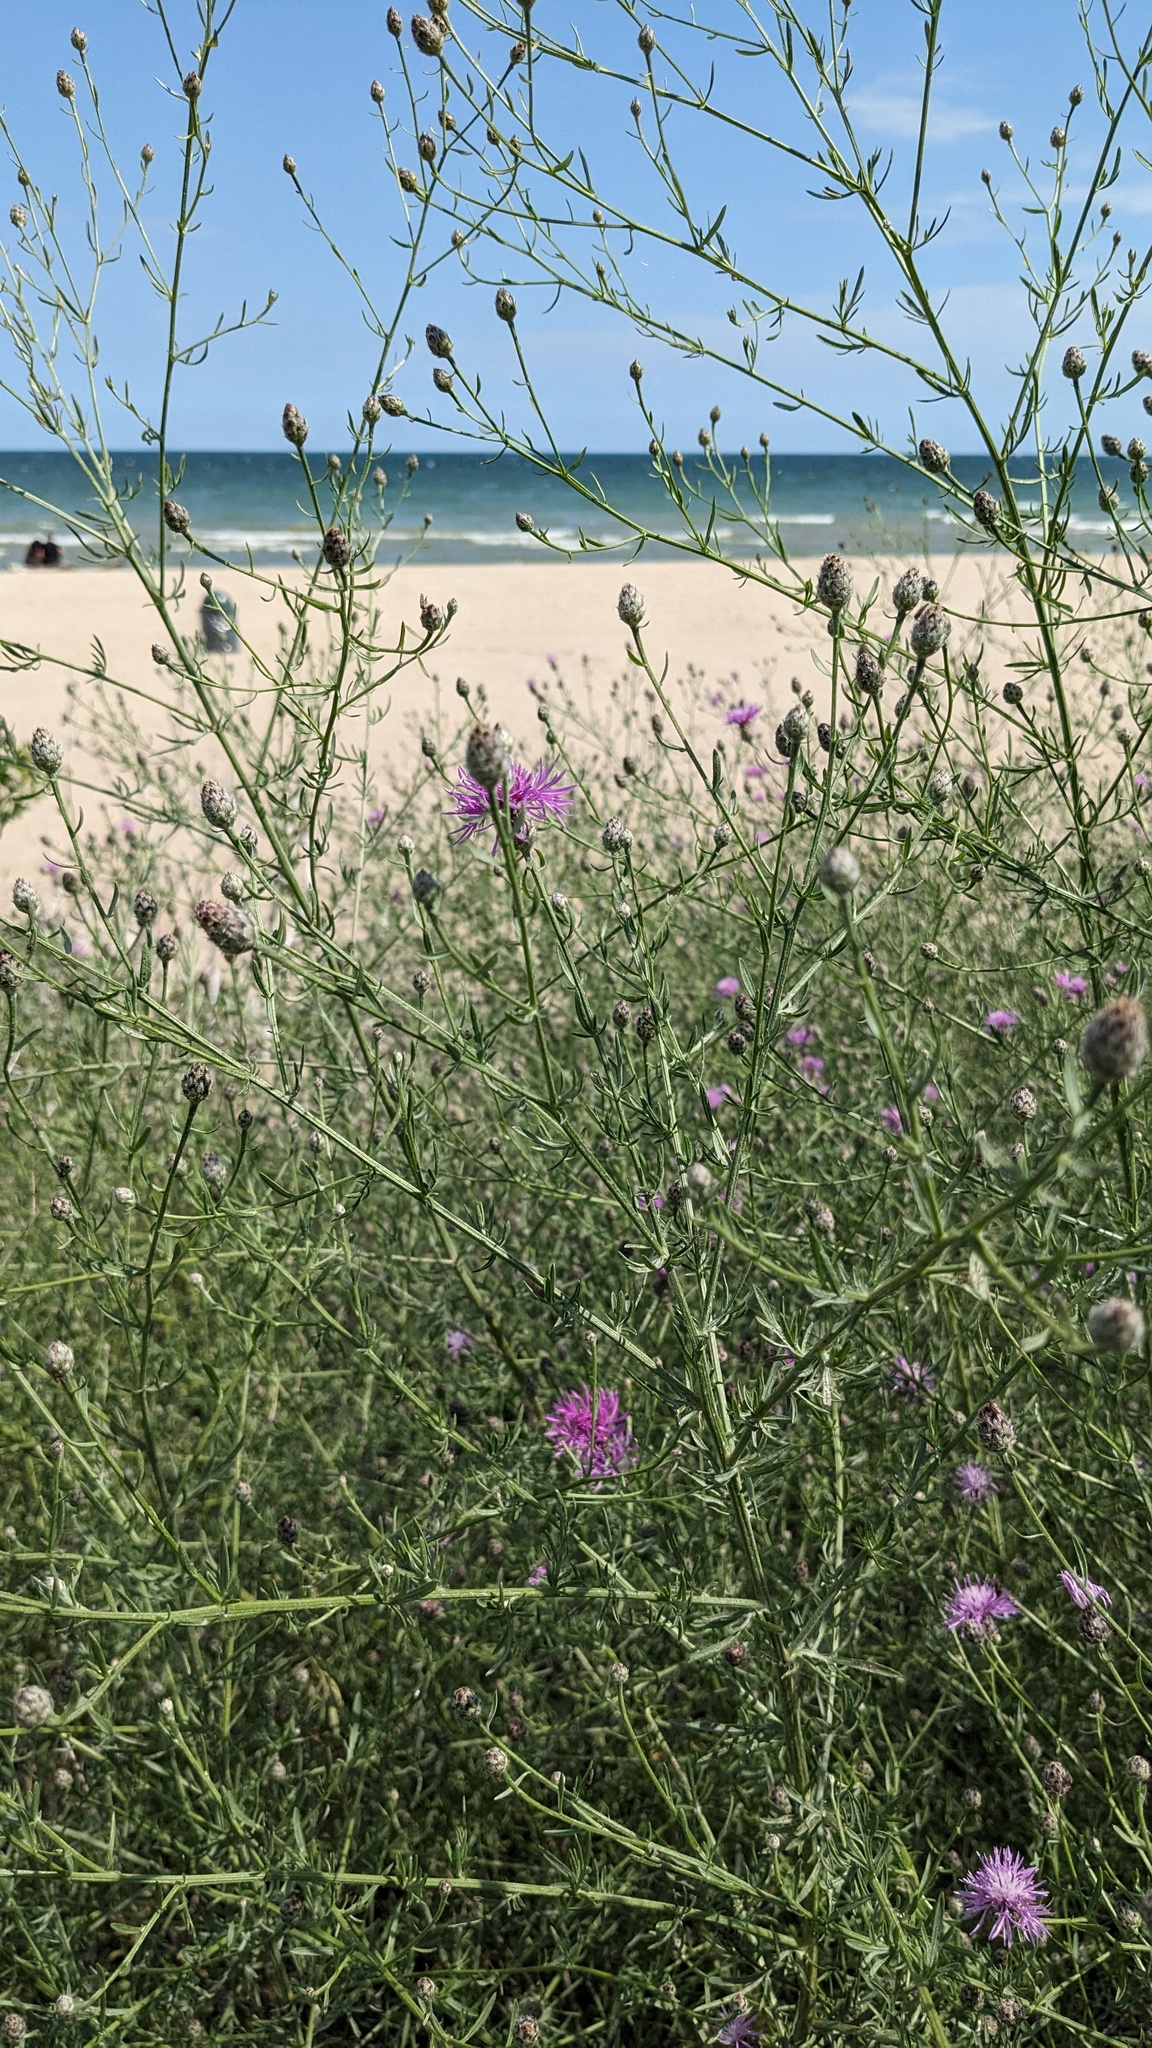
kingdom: Plantae
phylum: Tracheophyta
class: Magnoliopsida
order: Asterales
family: Asteraceae
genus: Centaurea
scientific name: Centaurea stoebe
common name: Spotted knapweed
